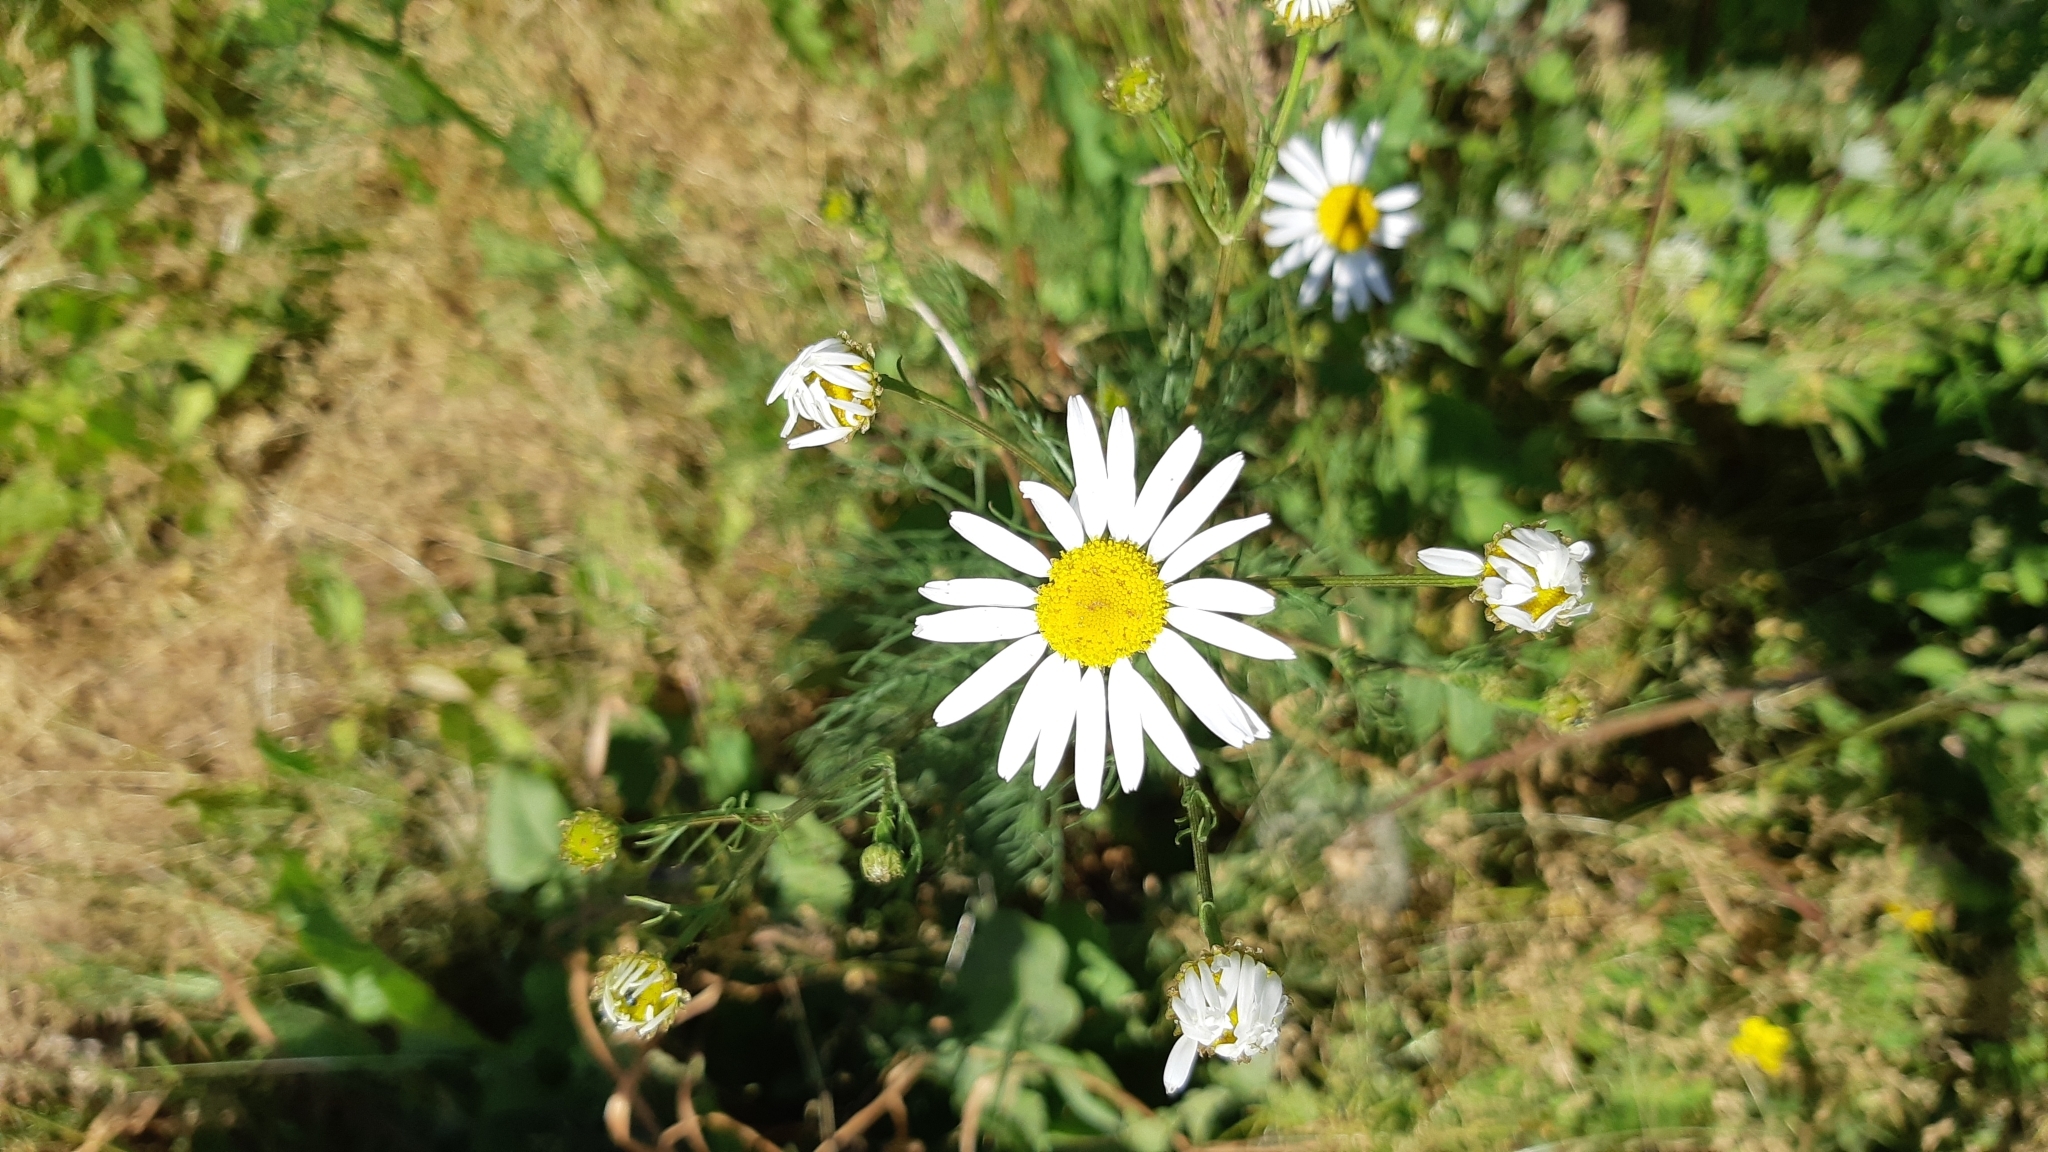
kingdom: Plantae
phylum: Tracheophyta
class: Magnoliopsida
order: Asterales
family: Asteraceae
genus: Tripleurospermum
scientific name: Tripleurospermum inodorum
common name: Scentless mayweed
